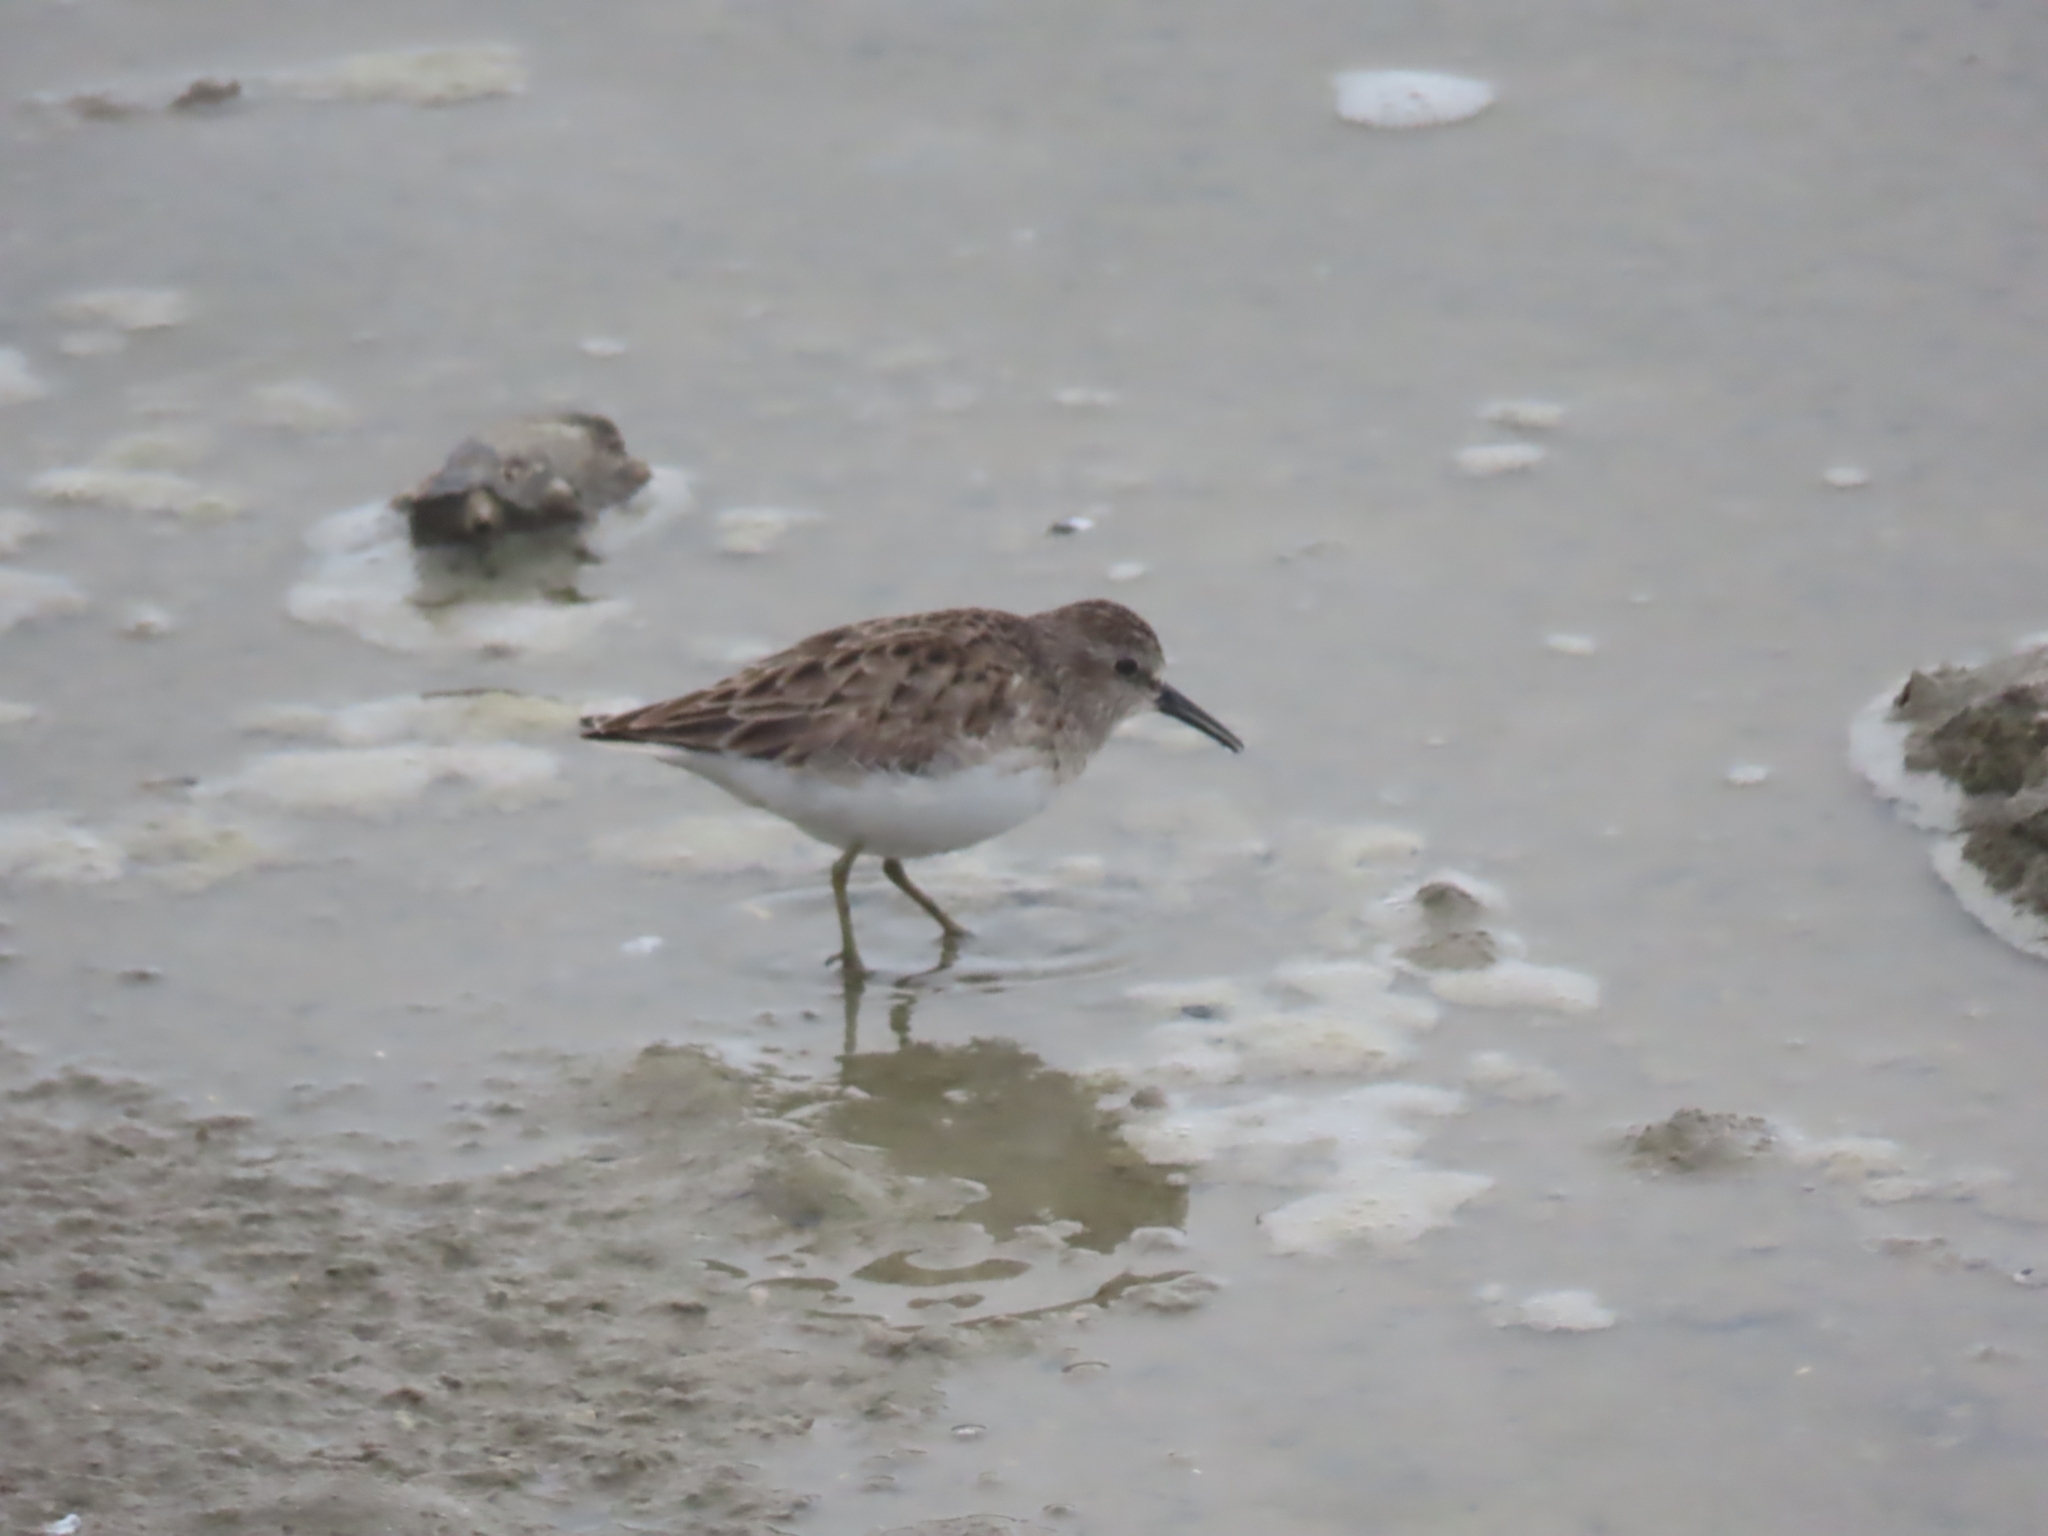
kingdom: Animalia
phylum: Chordata
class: Aves
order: Charadriiformes
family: Scolopacidae
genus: Calidris
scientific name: Calidris minutilla
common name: Least sandpiper
